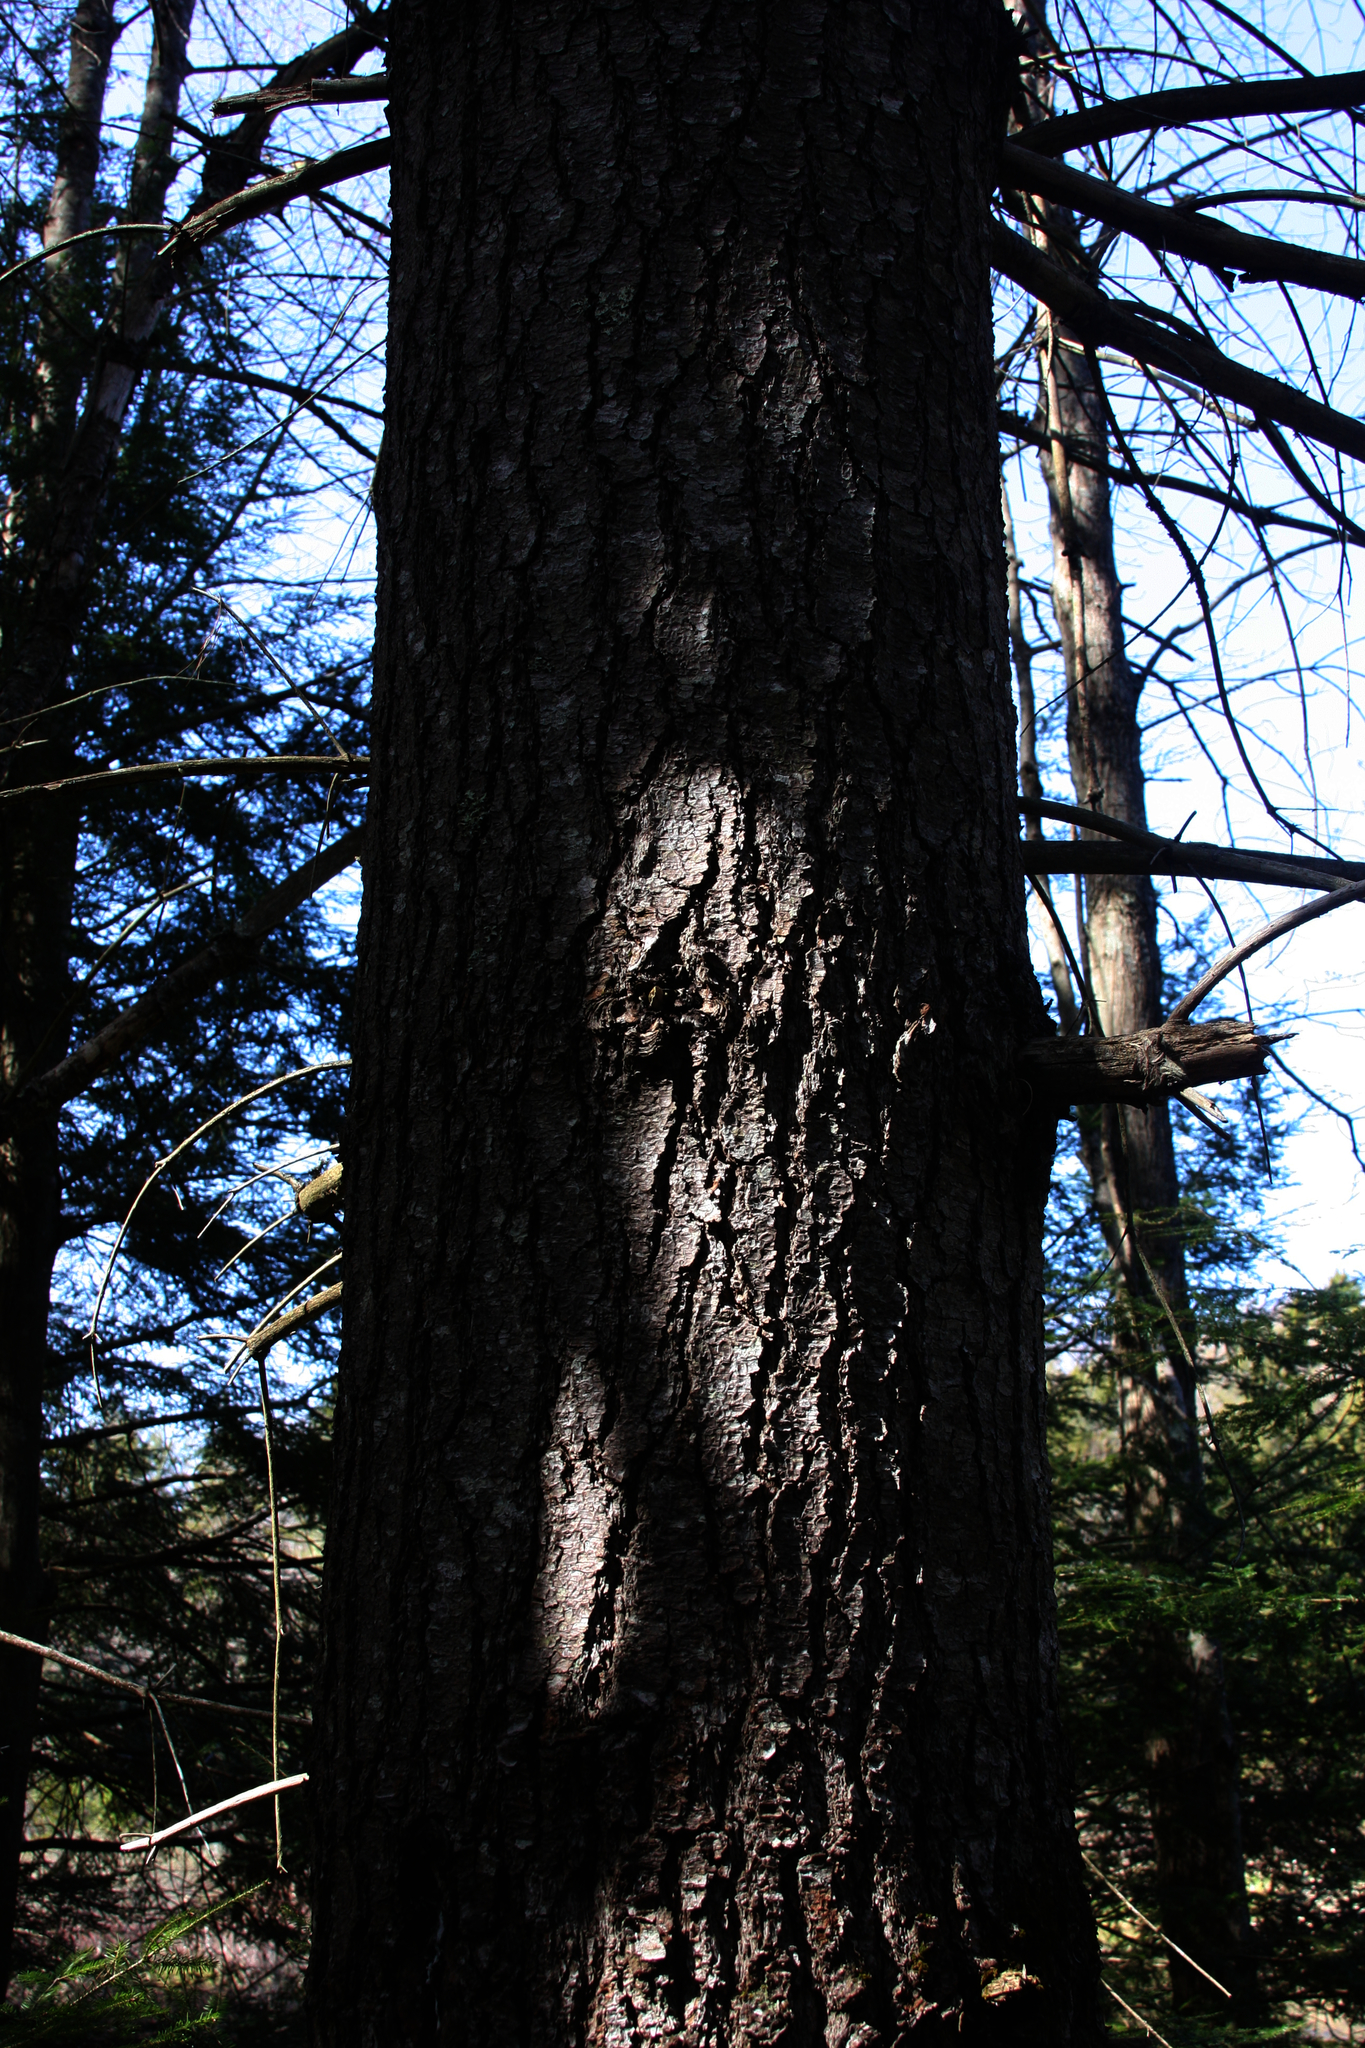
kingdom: Plantae
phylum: Tracheophyta
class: Pinopsida
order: Pinales
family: Pinaceae
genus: Pinus
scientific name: Pinus strobus
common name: Weymouth pine
